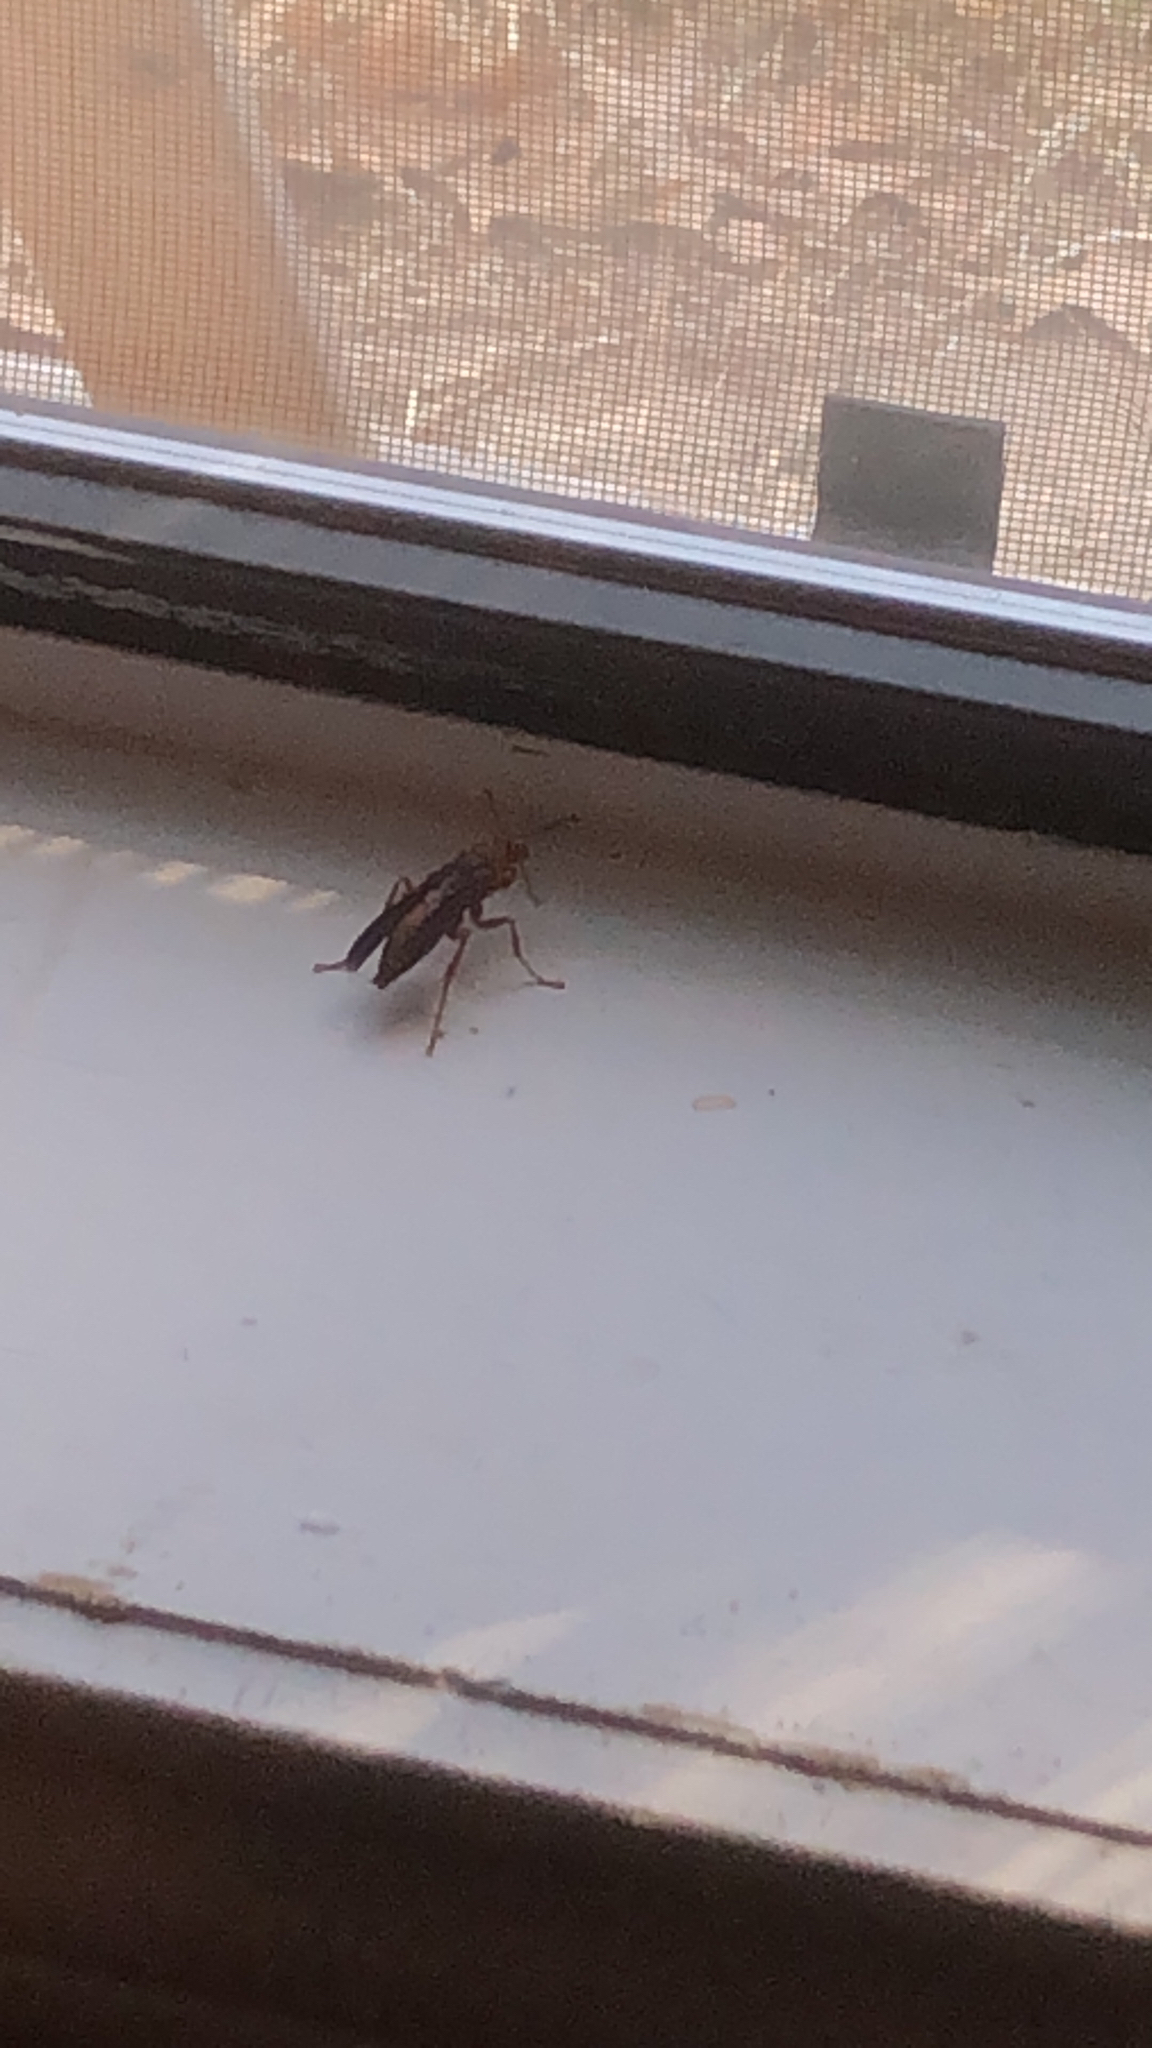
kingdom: Animalia
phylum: Arthropoda
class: Insecta
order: Hymenoptera
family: Eumenidae
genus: Polistes
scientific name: Polistes fuscatus
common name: Dark paper wasp
